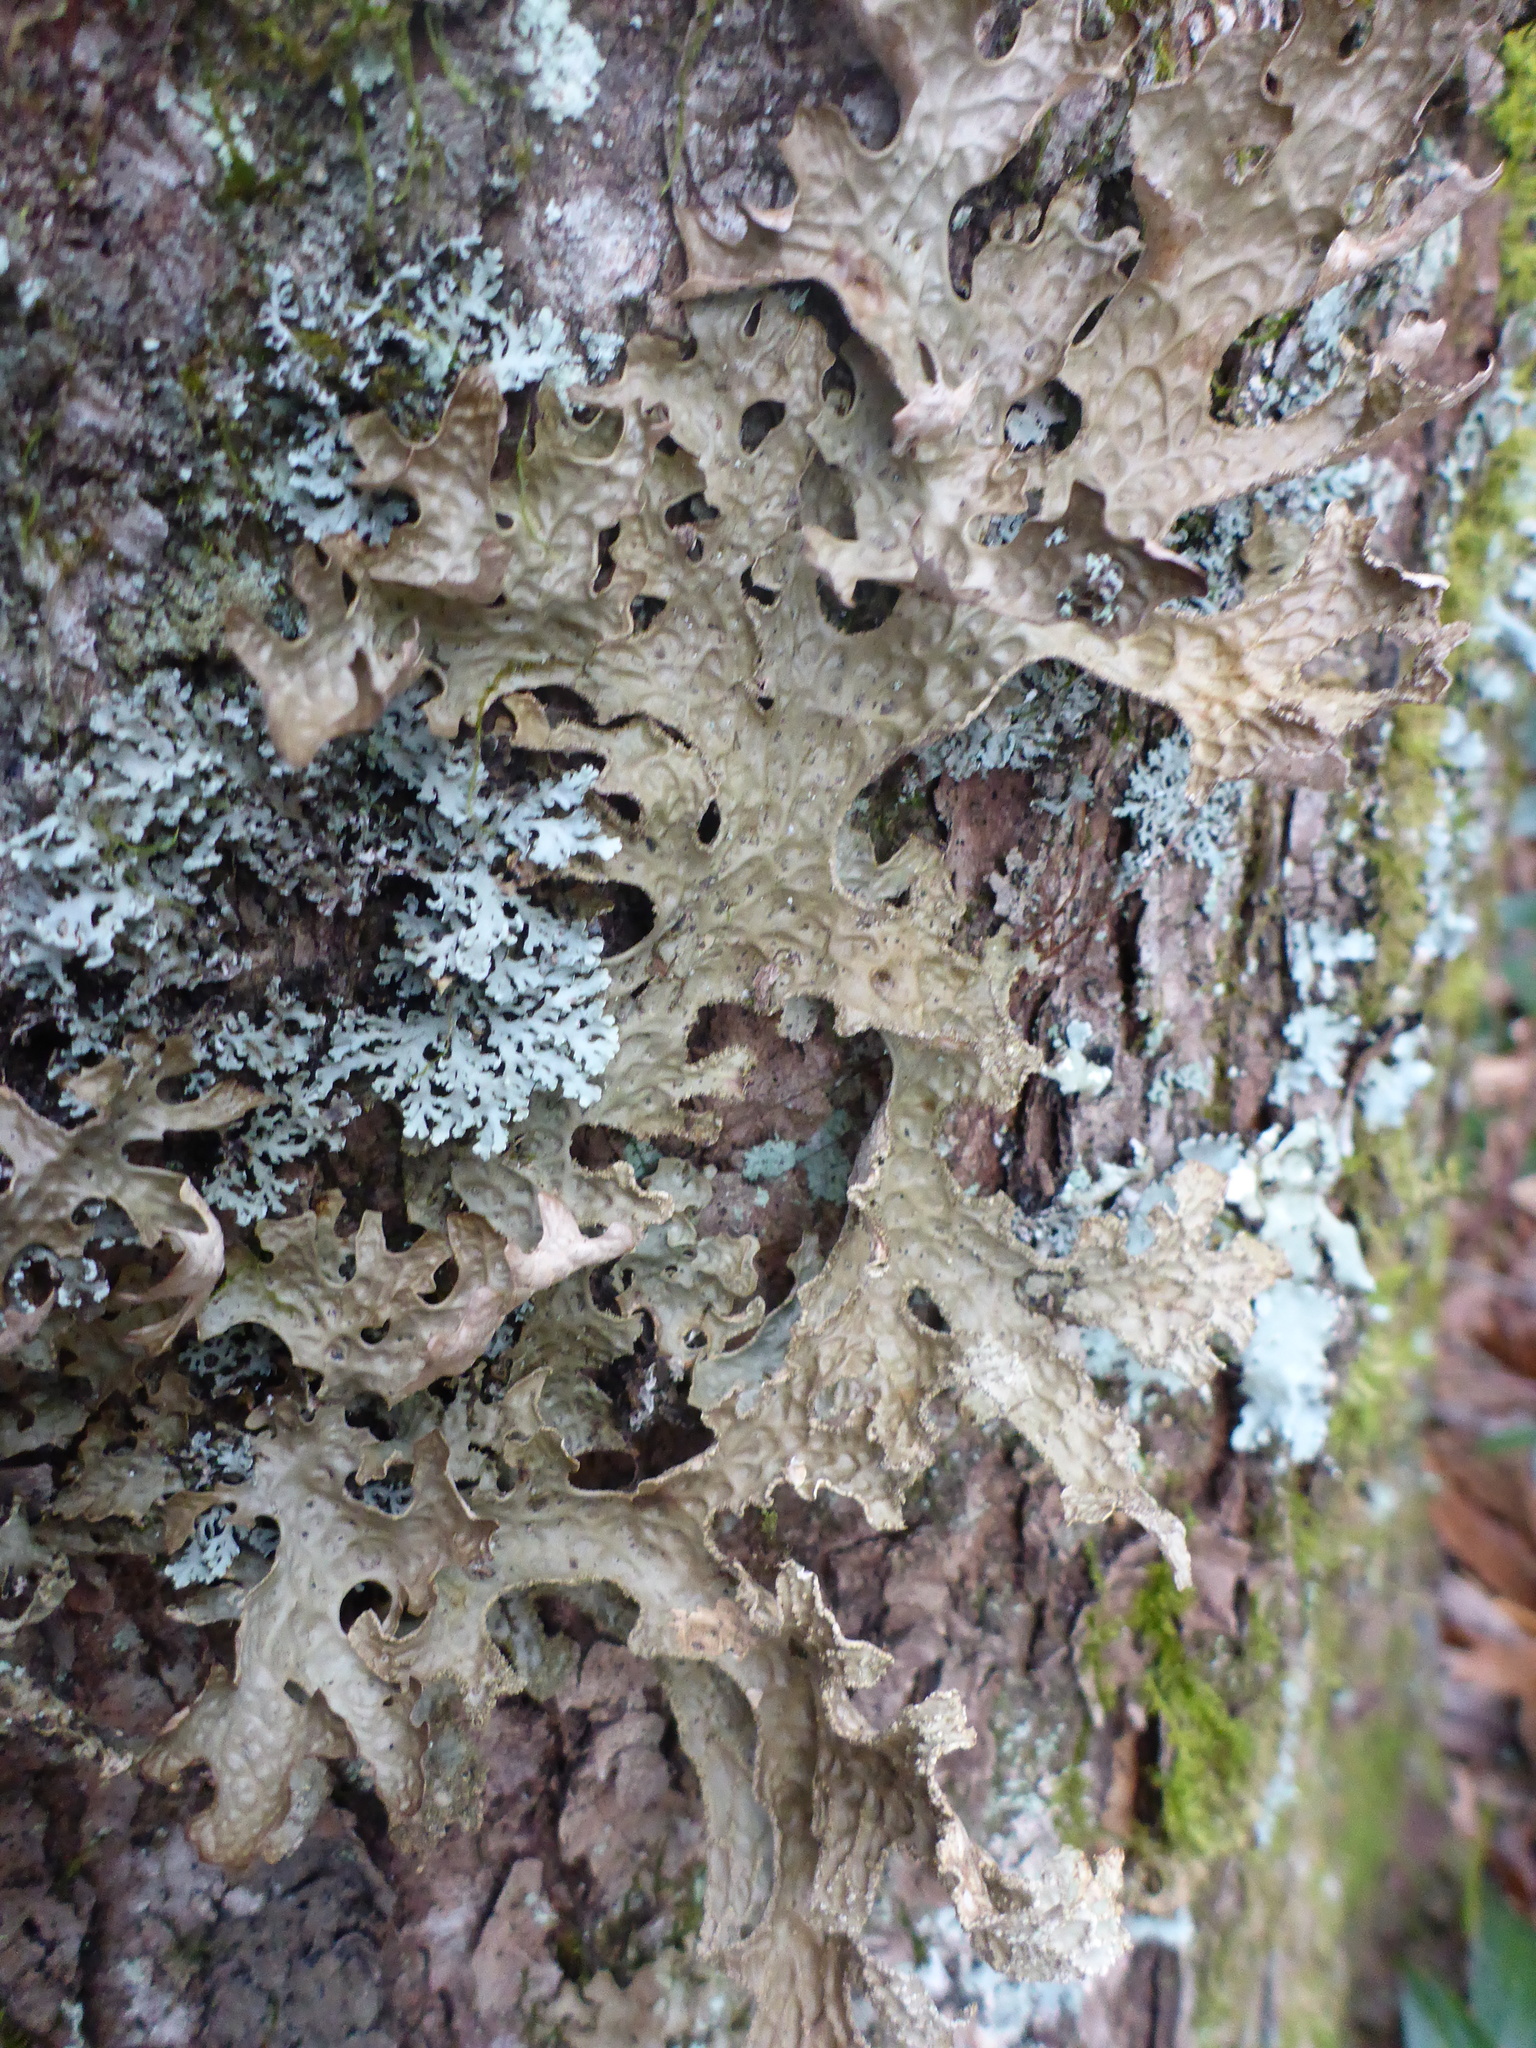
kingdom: Fungi
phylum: Ascomycota
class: Lecanoromycetes
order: Peltigerales
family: Lobariaceae
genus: Lobaria
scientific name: Lobaria pulmonaria
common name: Lungwort
